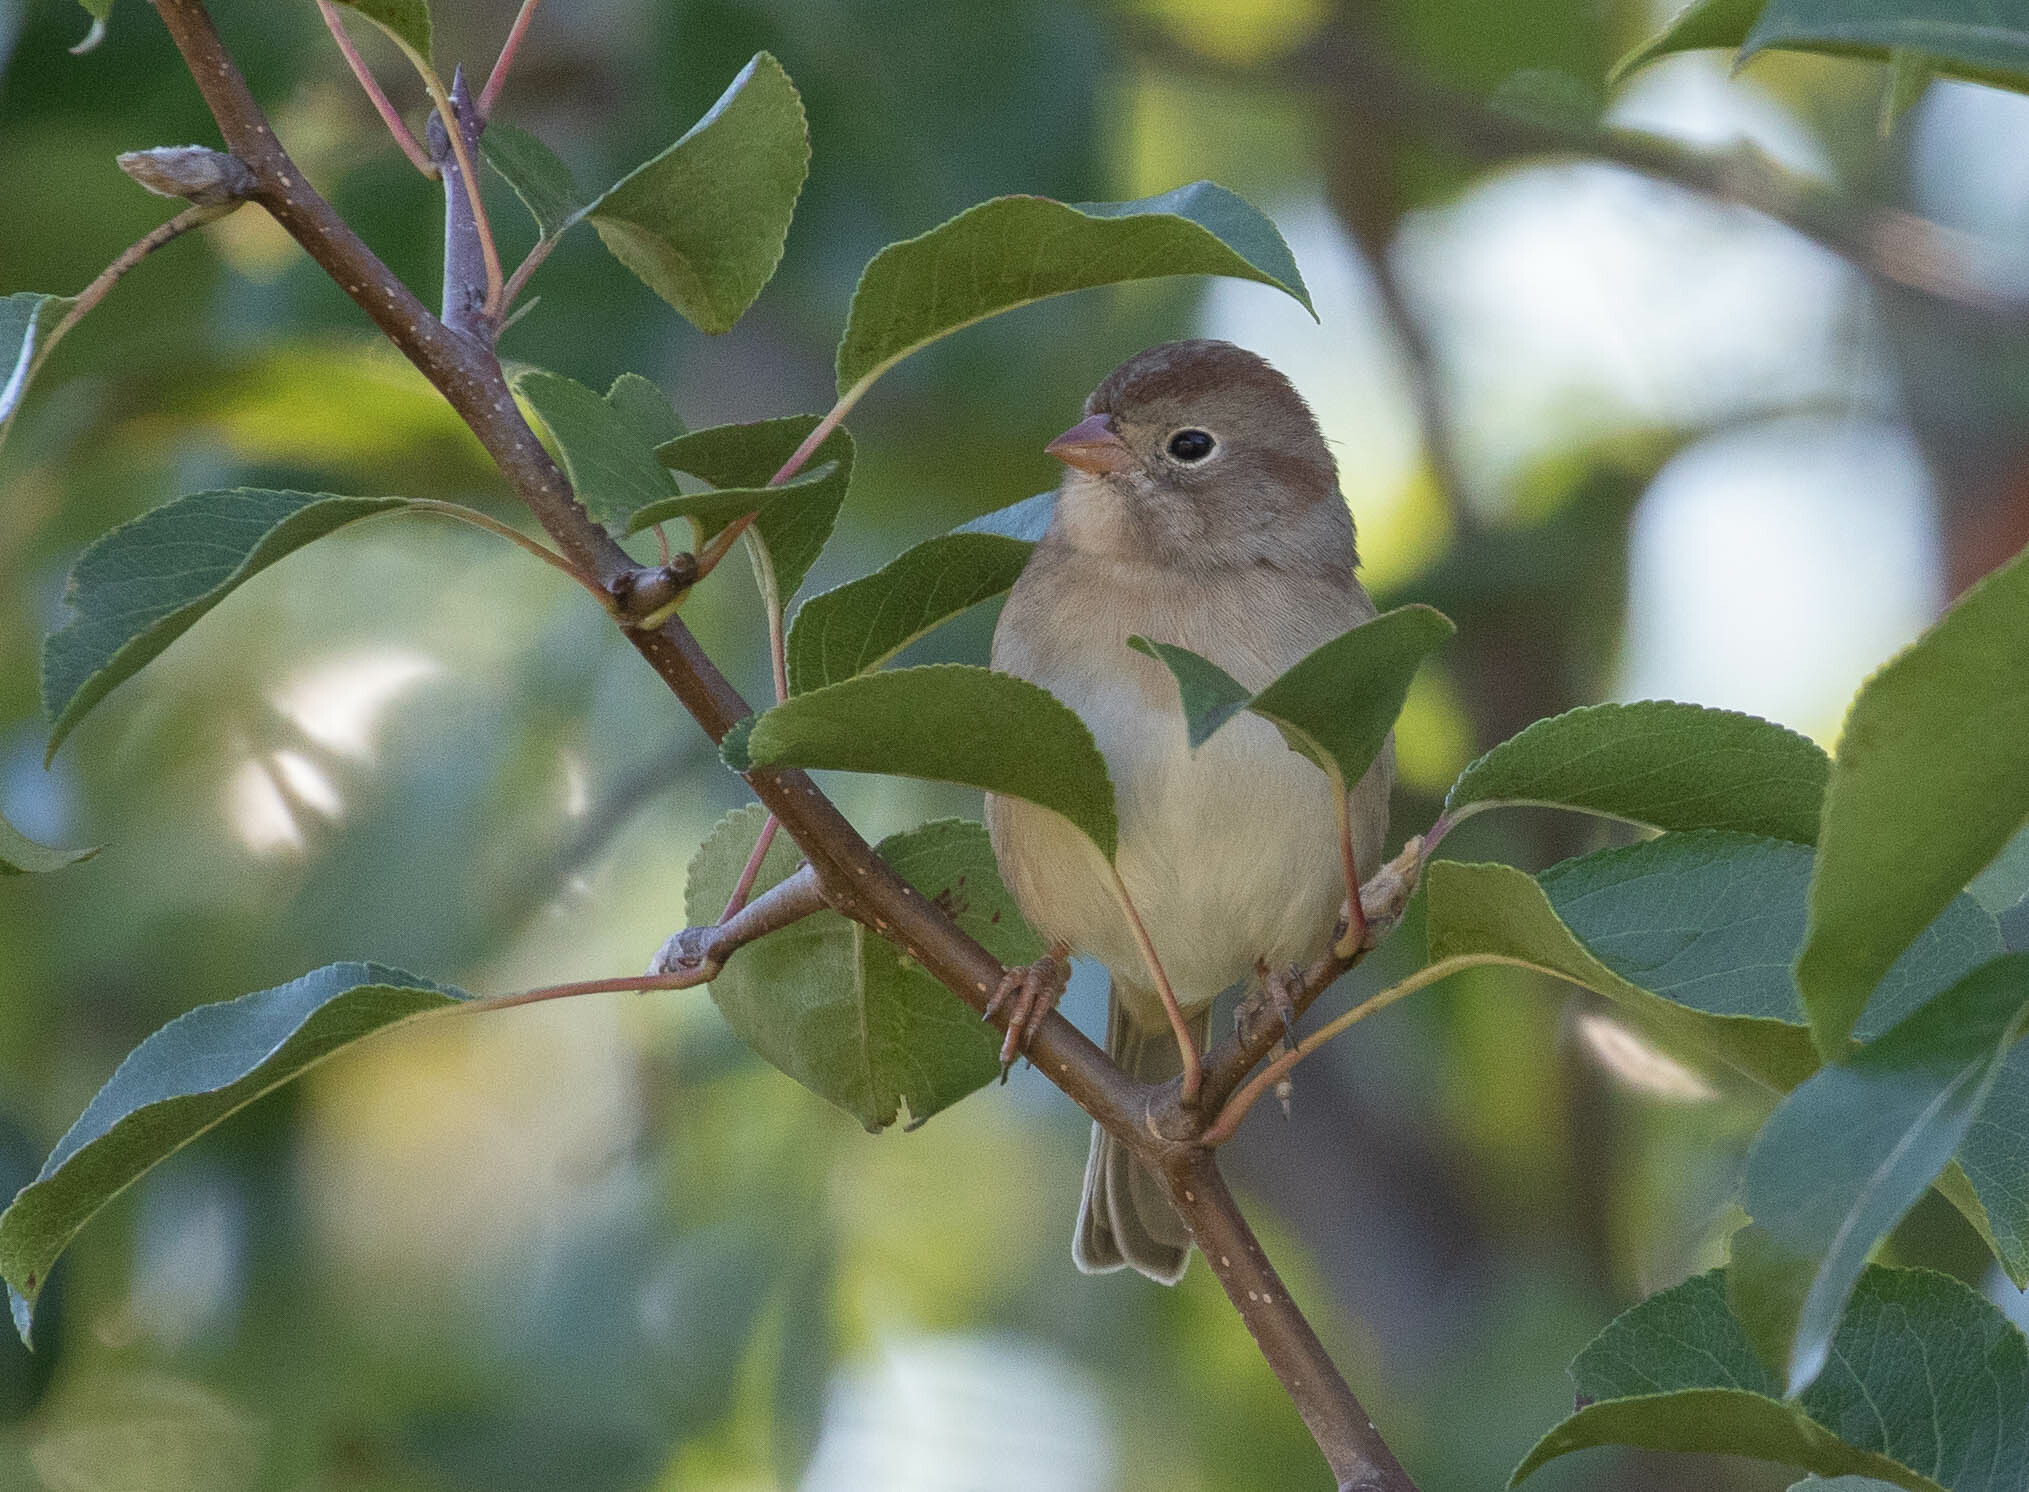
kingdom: Animalia
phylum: Chordata
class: Aves
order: Passeriformes
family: Passerellidae
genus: Spizella
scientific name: Spizella pusilla
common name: Field sparrow
